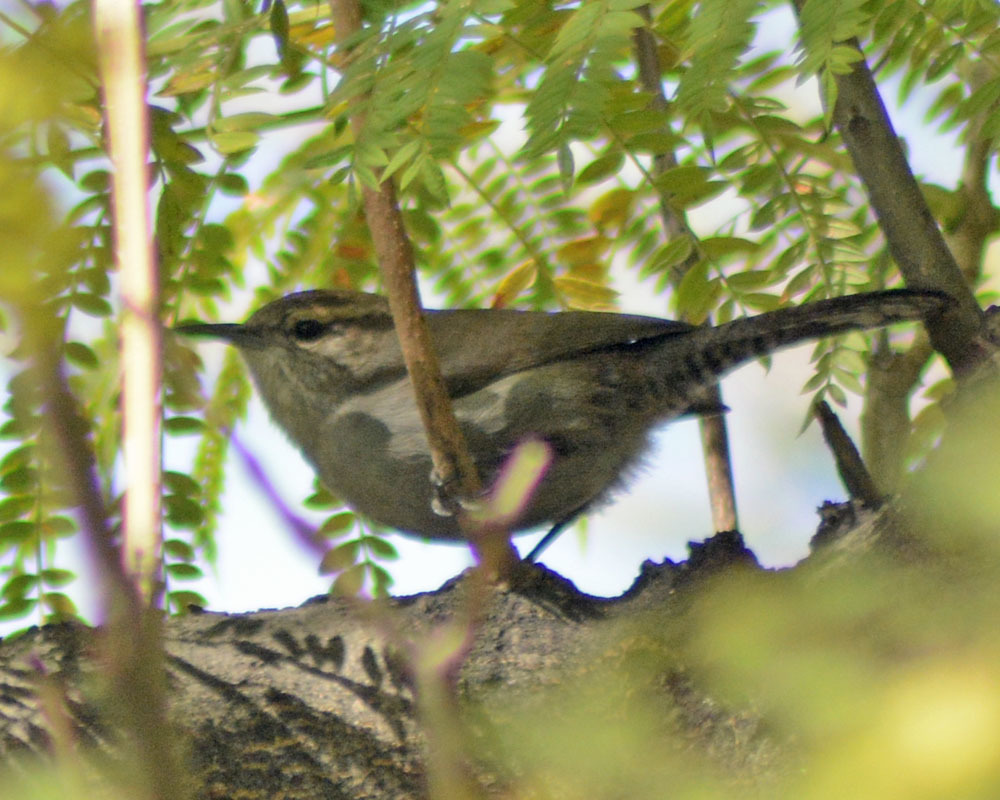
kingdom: Animalia
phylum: Chordata
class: Aves
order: Passeriformes
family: Troglodytidae
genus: Thryomanes
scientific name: Thryomanes bewickii
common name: Bewick's wren
